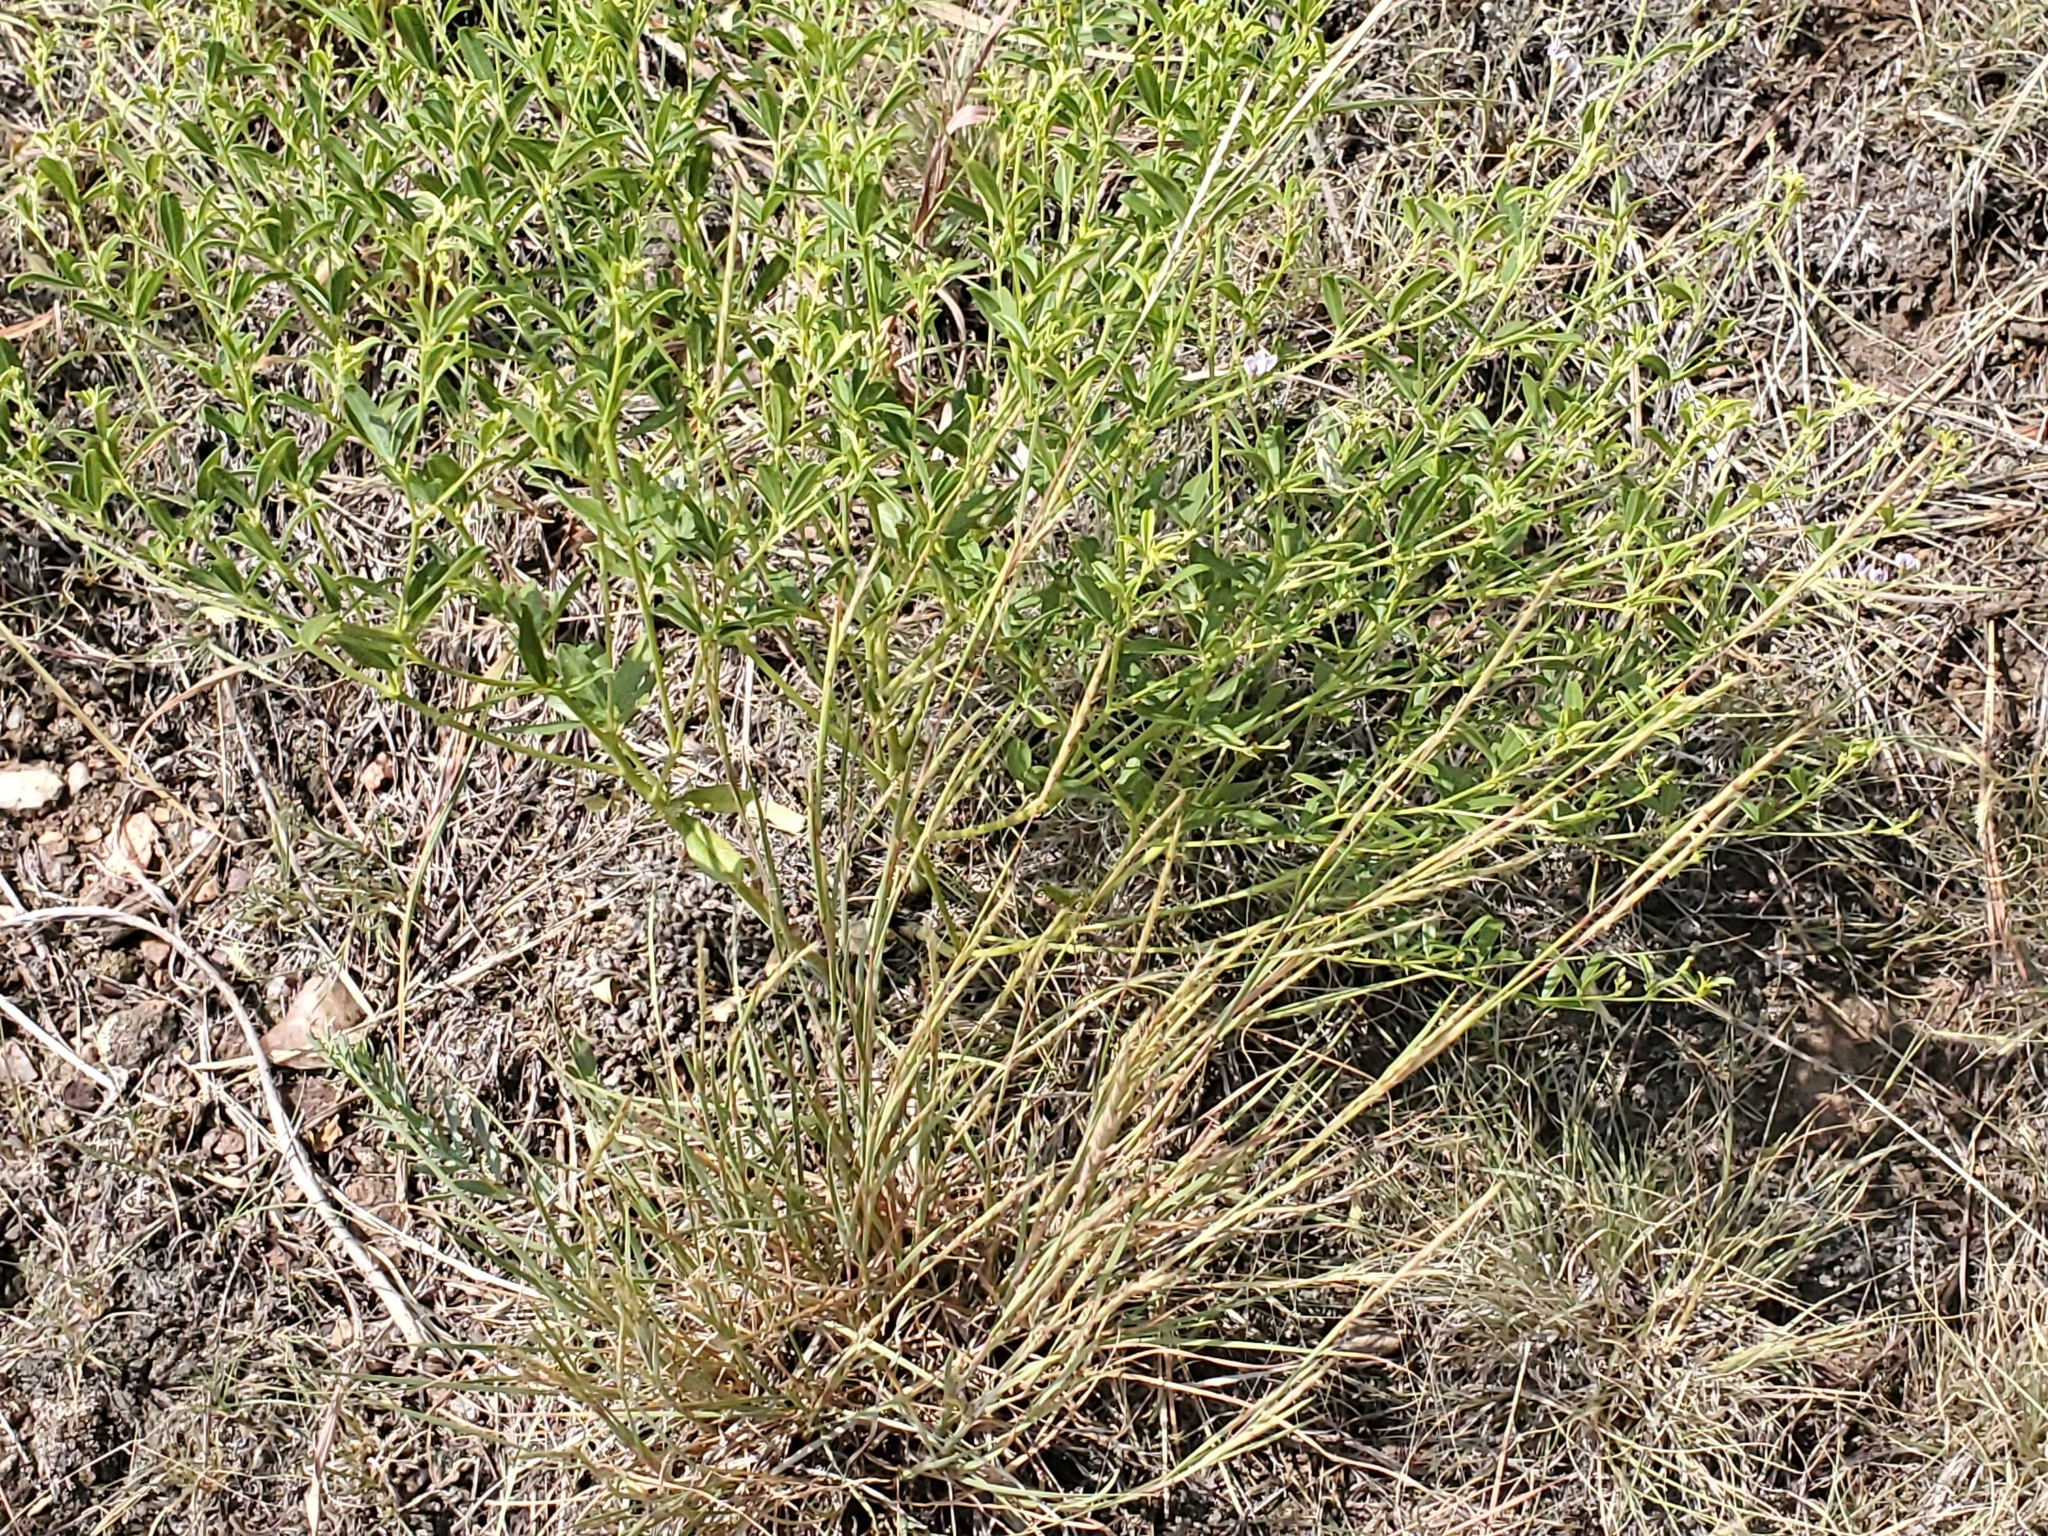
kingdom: Plantae
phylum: Tracheophyta
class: Magnoliopsida
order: Fabales
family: Fabaceae
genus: Pediomelum
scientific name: Pediomelum tenuiflorum
